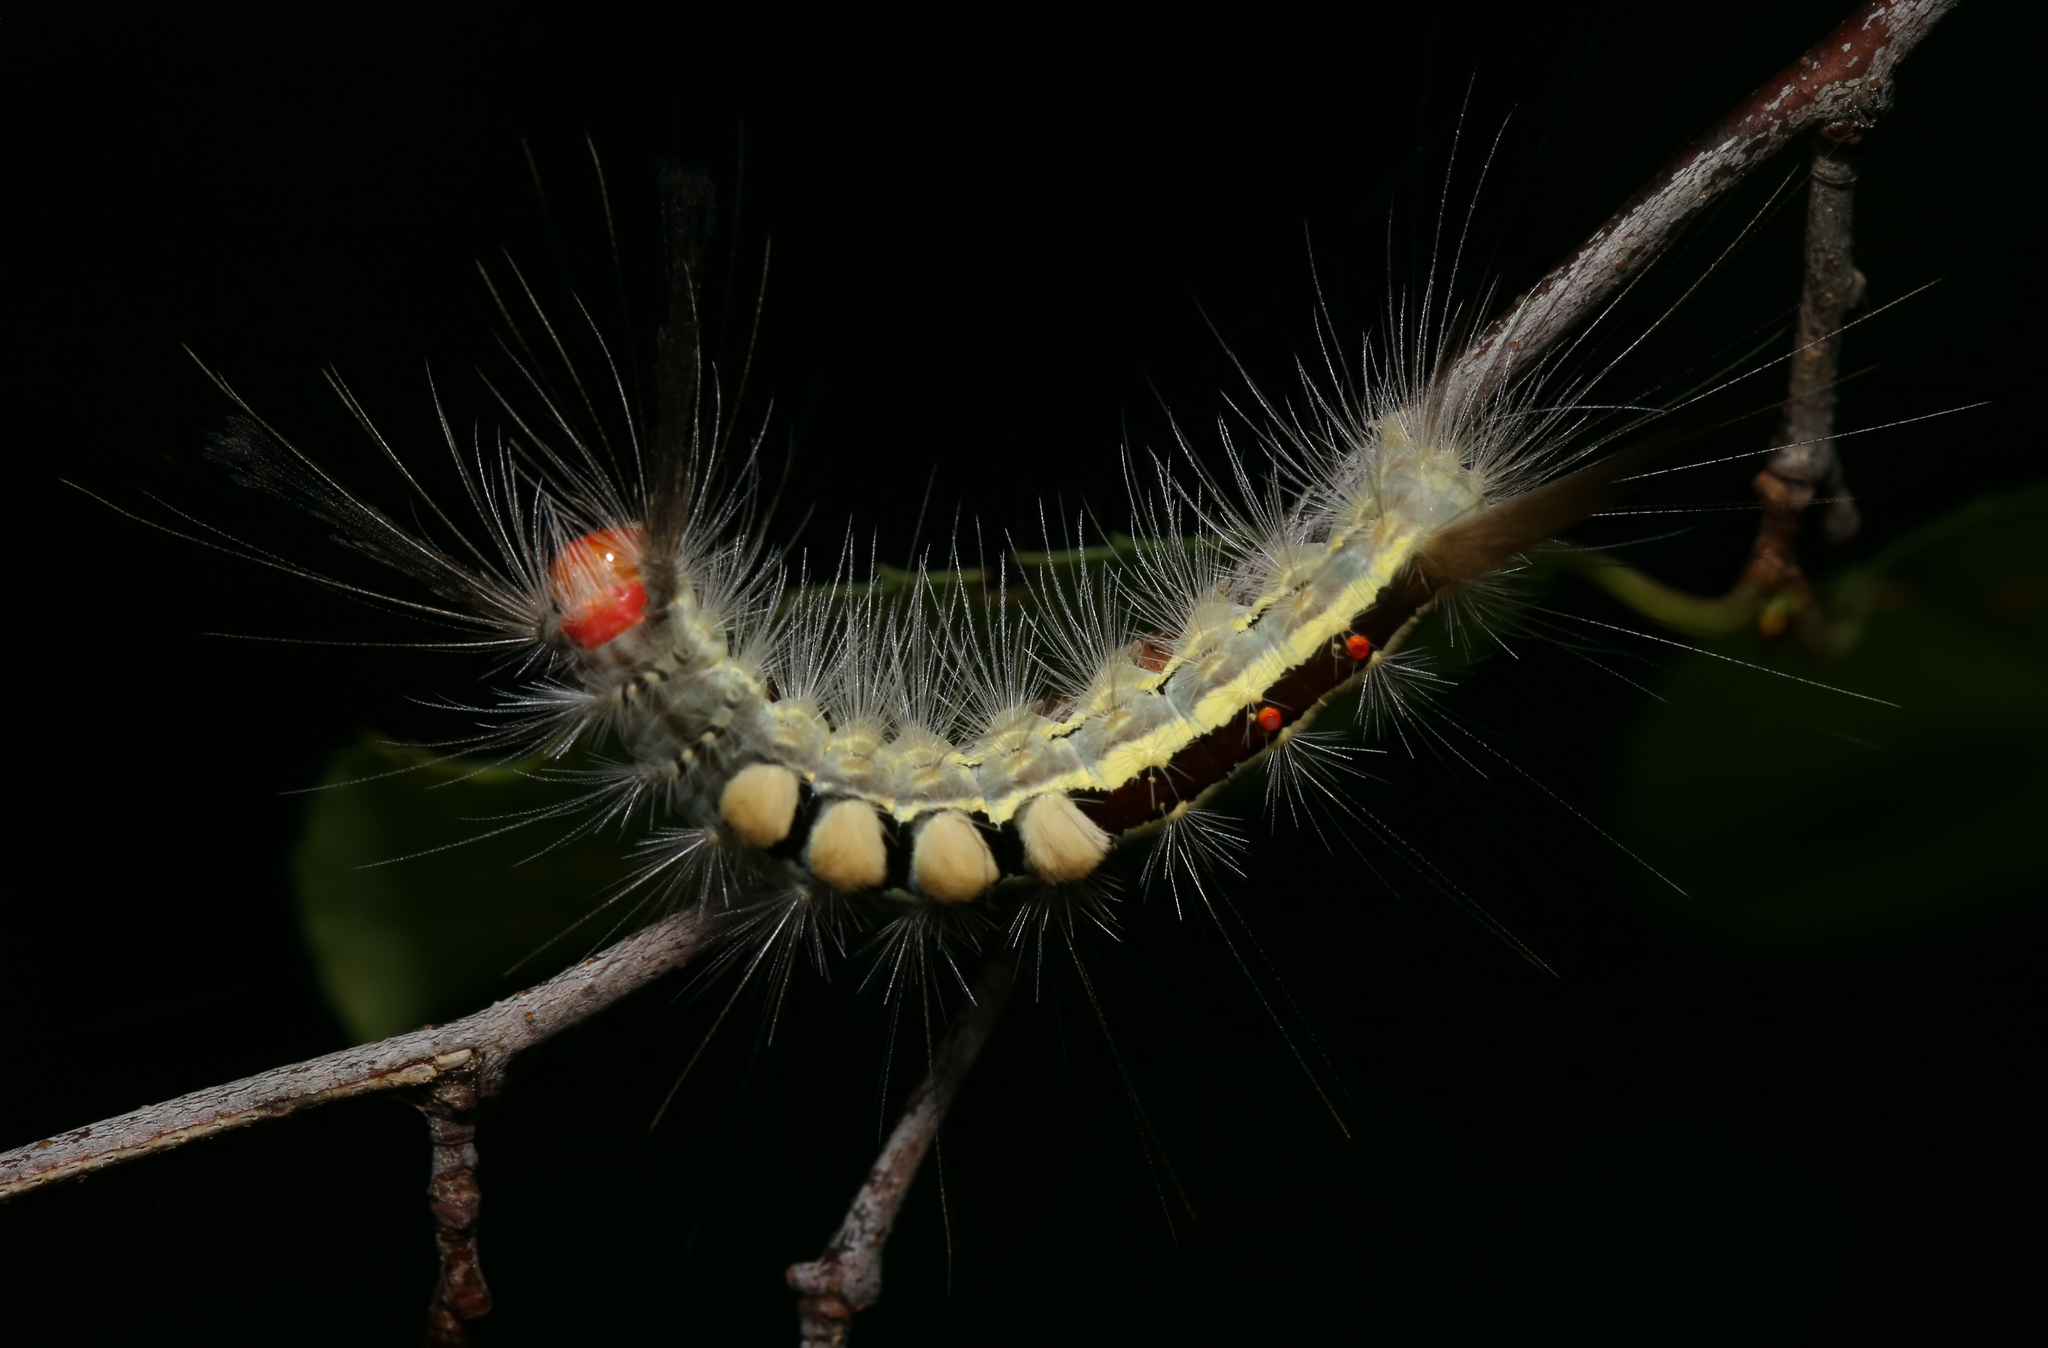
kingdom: Animalia
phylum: Arthropoda
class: Insecta
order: Lepidoptera
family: Erebidae
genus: Orgyia
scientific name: Orgyia leucostigma
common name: White-marked tussock moth
